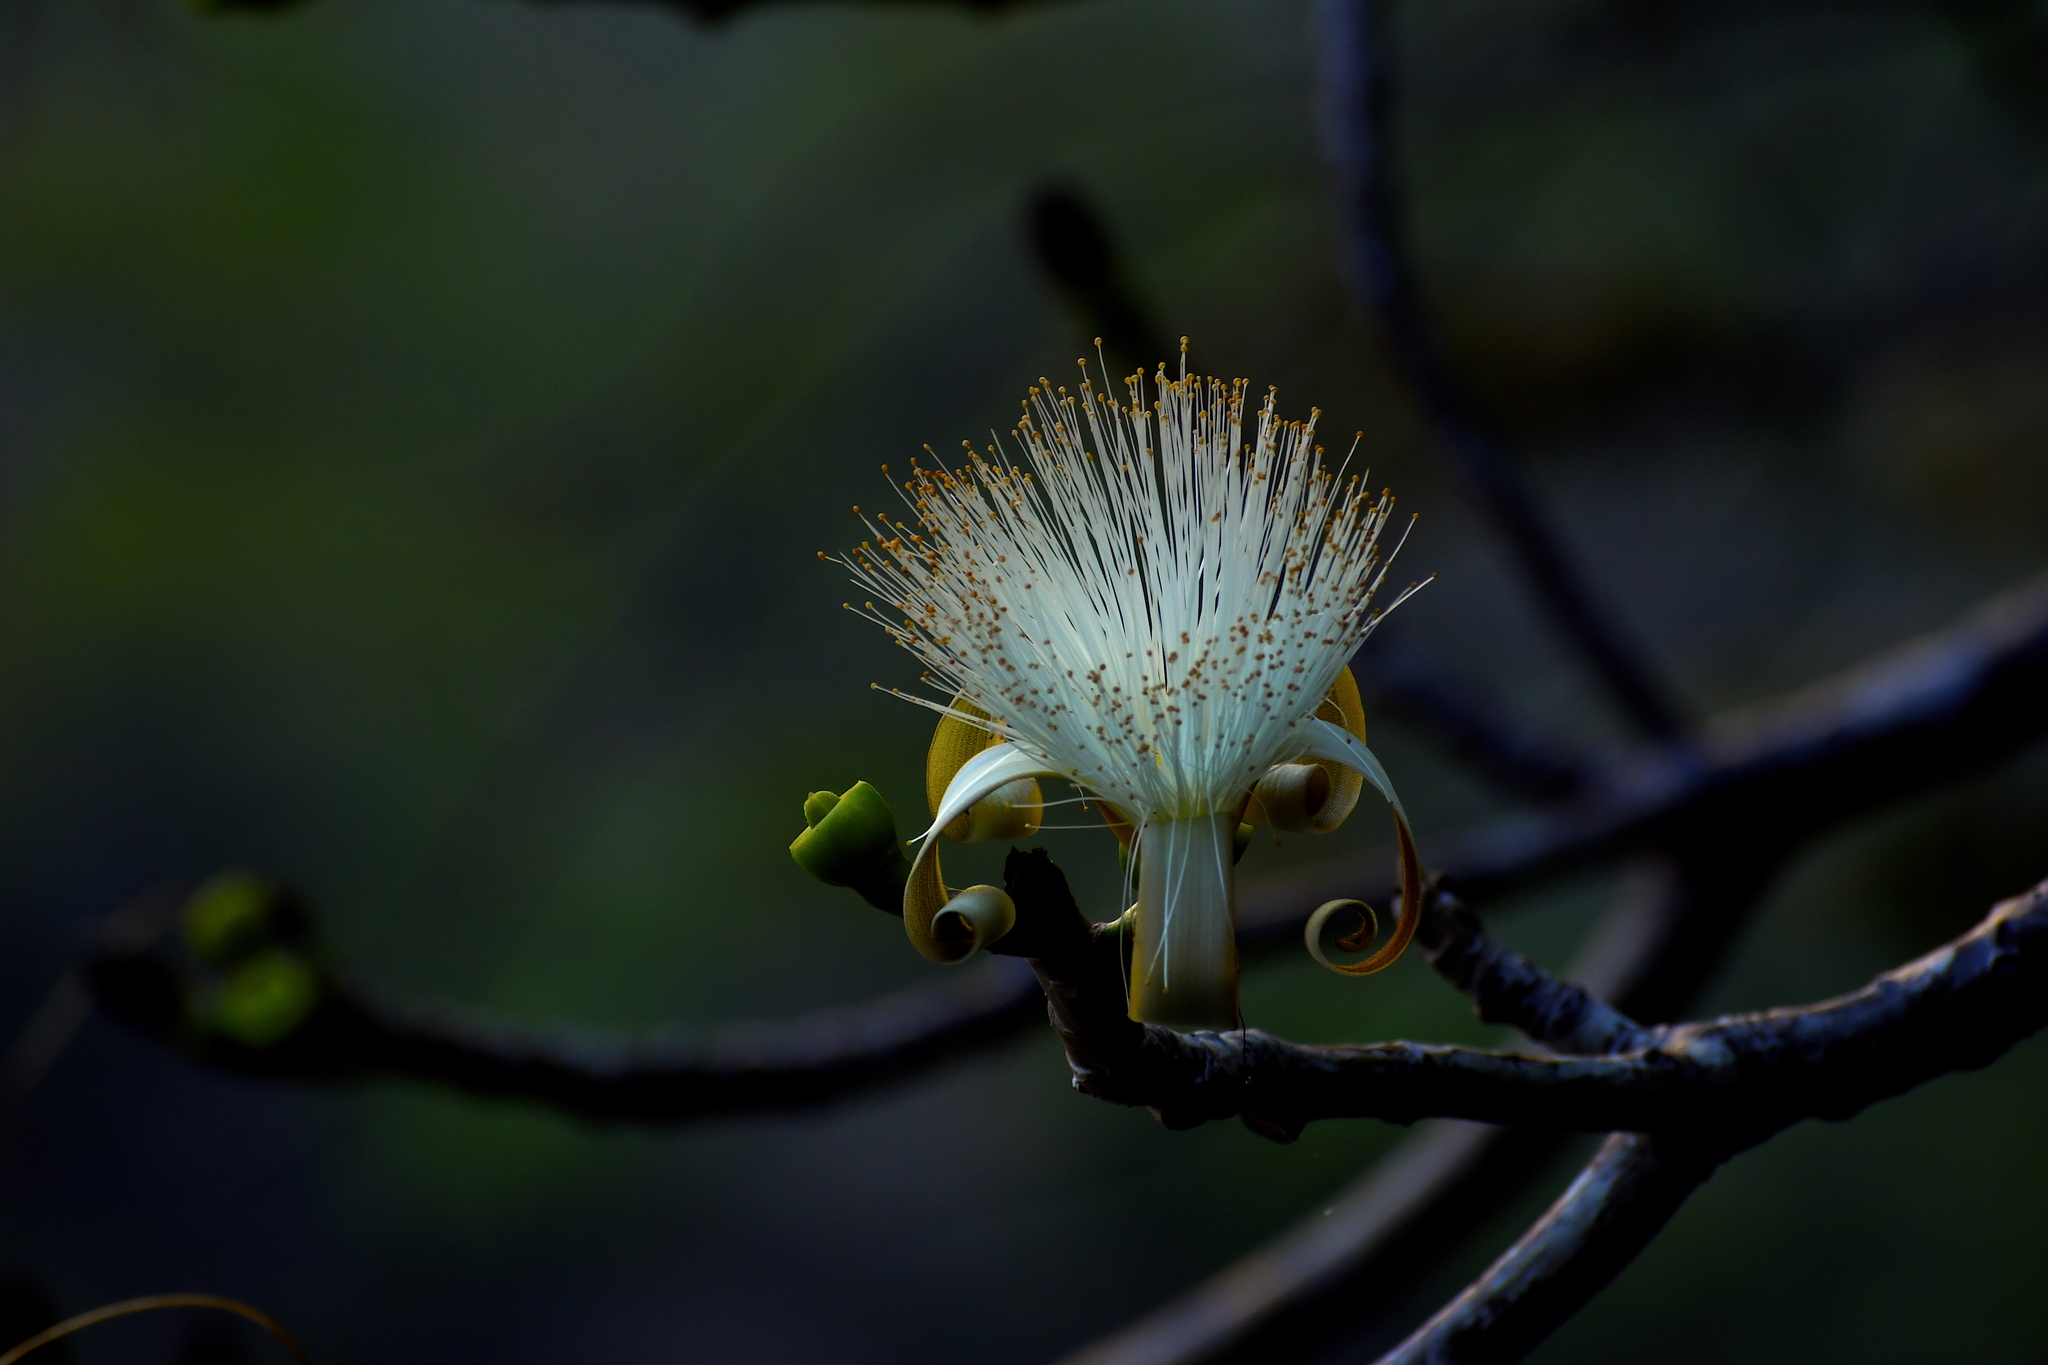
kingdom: Plantae
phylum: Tracheophyta
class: Magnoliopsida
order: Malvales
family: Malvaceae
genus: Pseudobombax
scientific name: Pseudobombax ellipticum
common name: Shaving-brush-tree
